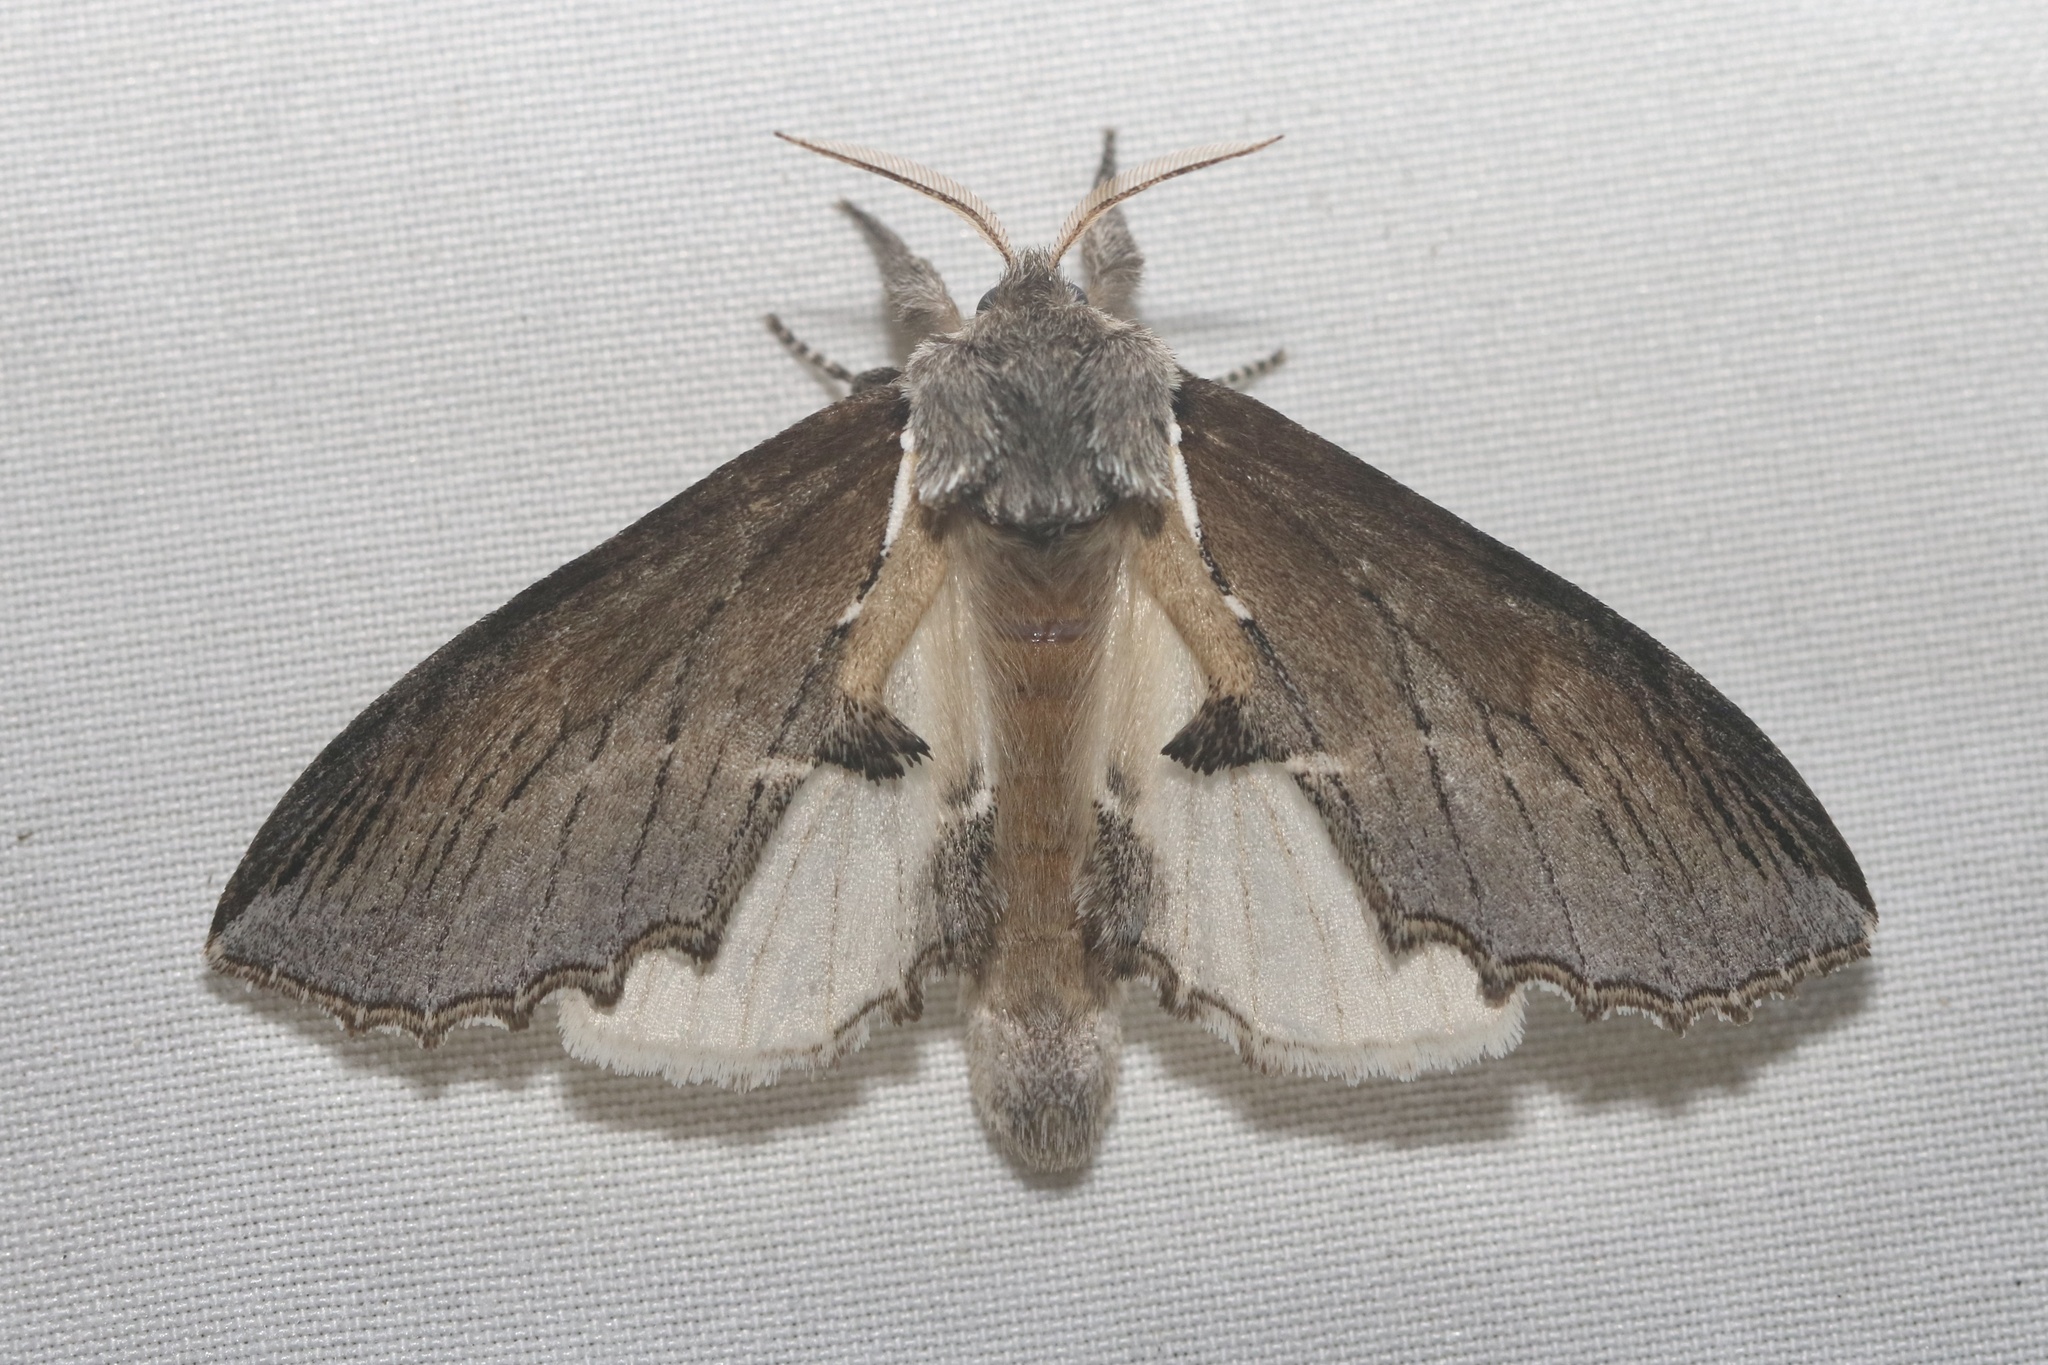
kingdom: Animalia
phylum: Arthropoda
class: Insecta
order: Lepidoptera
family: Notodontidae
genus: Pheosidea
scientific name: Pheosidea elegans
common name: Elegant prominent
